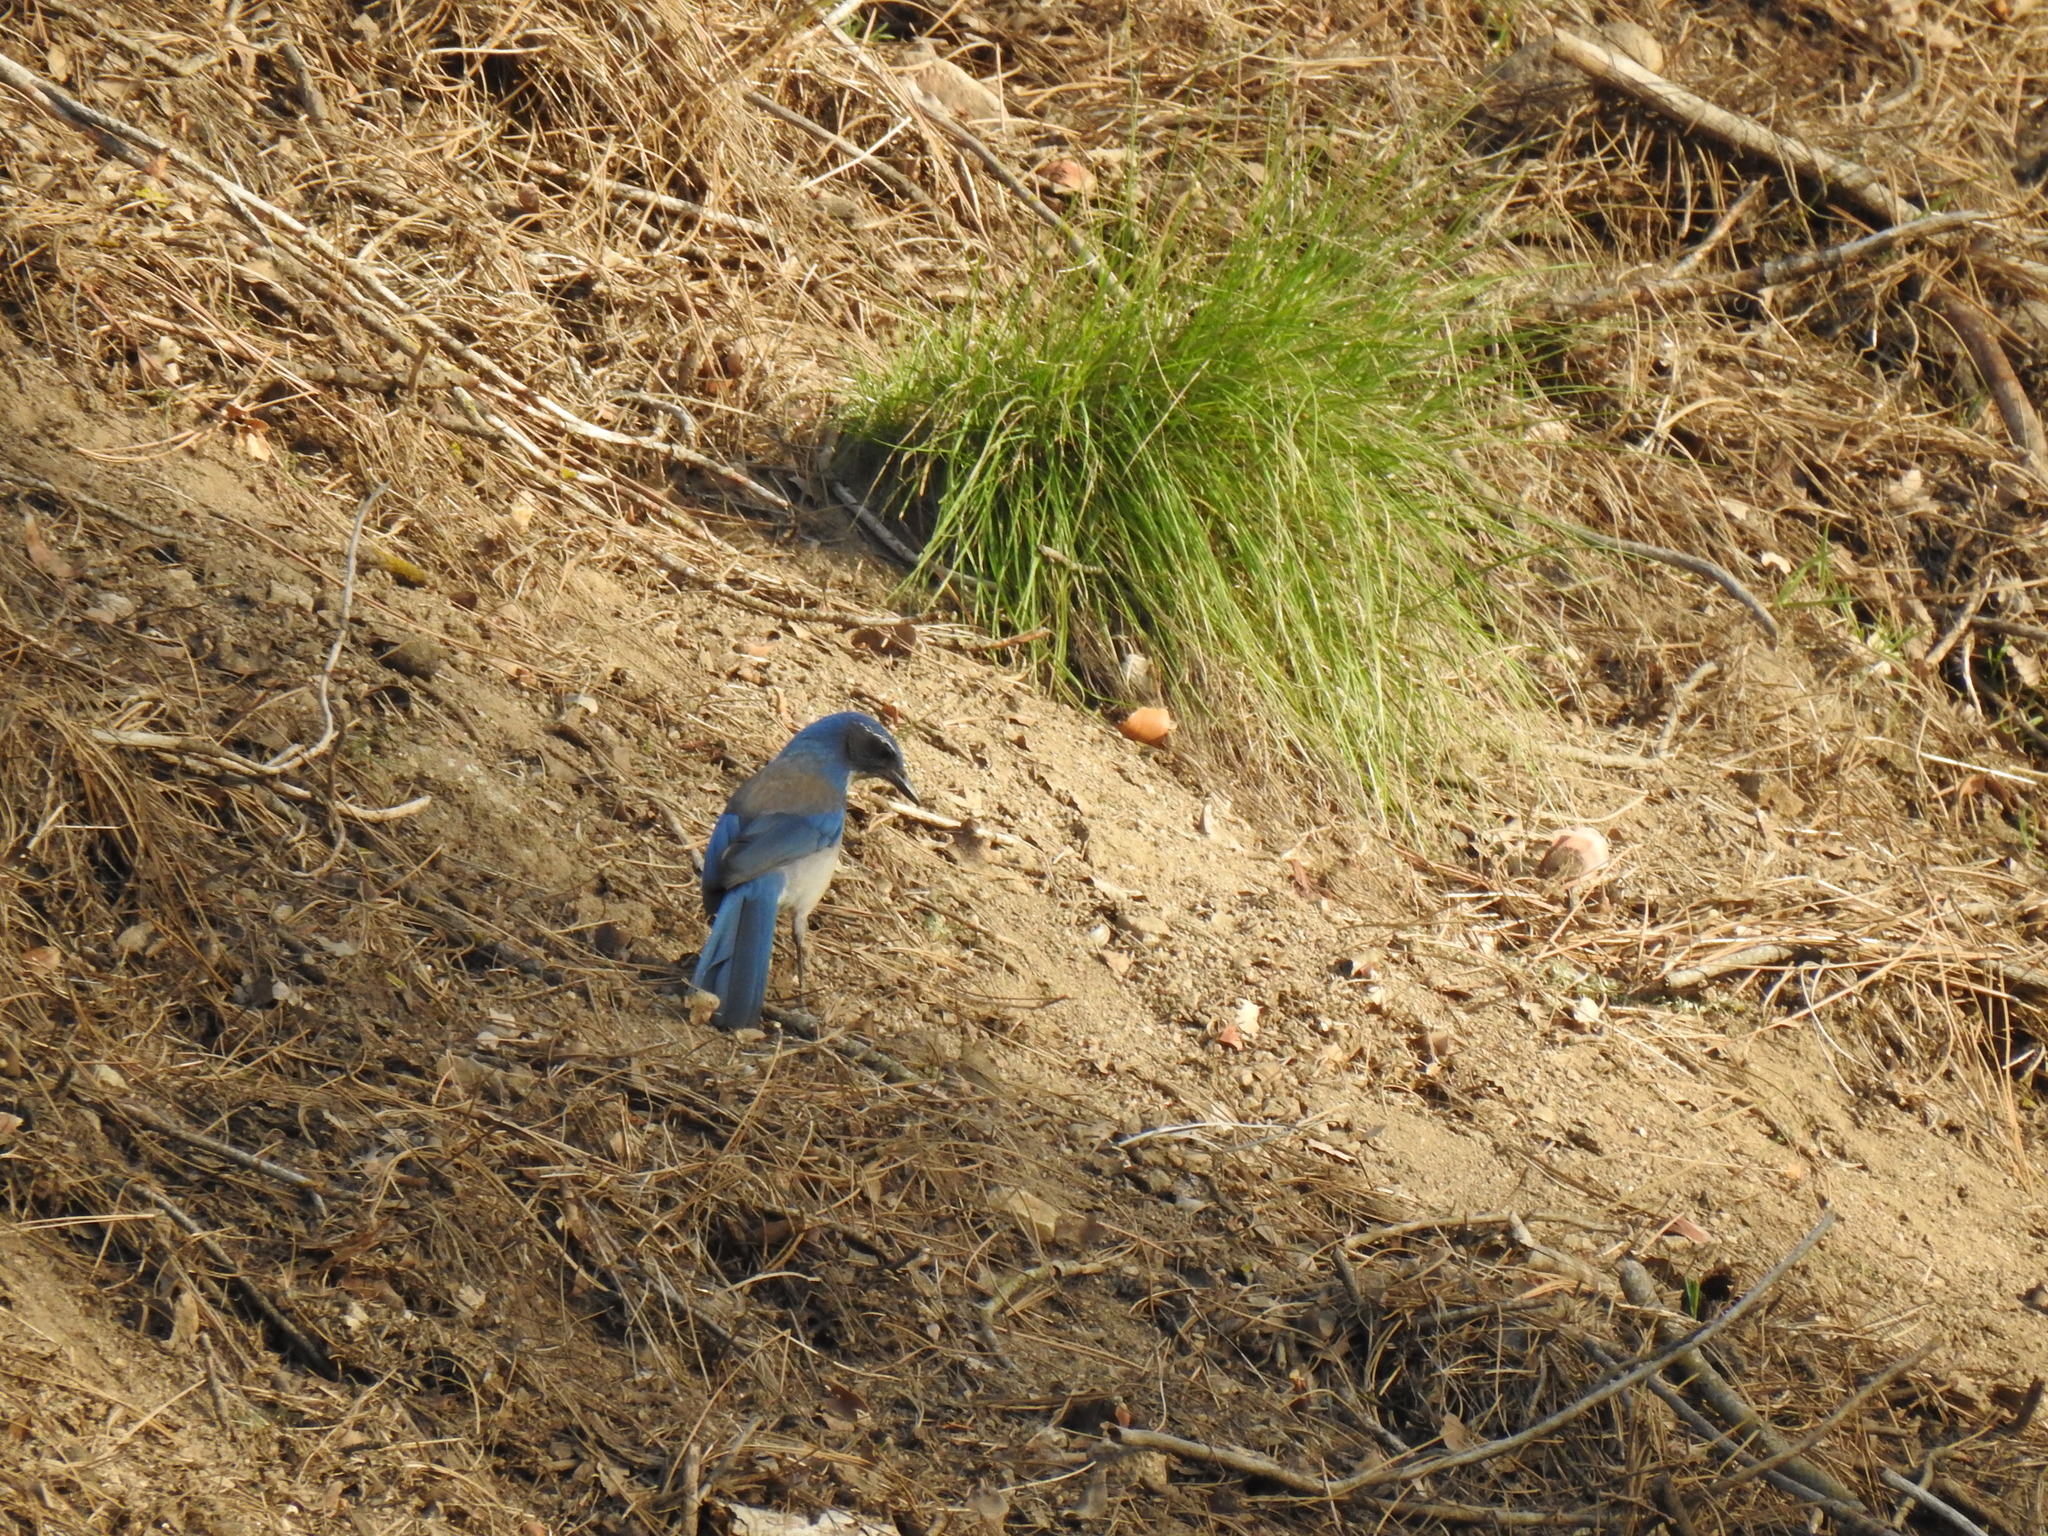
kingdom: Animalia
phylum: Chordata
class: Aves
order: Passeriformes
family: Corvidae
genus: Aphelocoma
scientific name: Aphelocoma californica
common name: California scrub-jay
